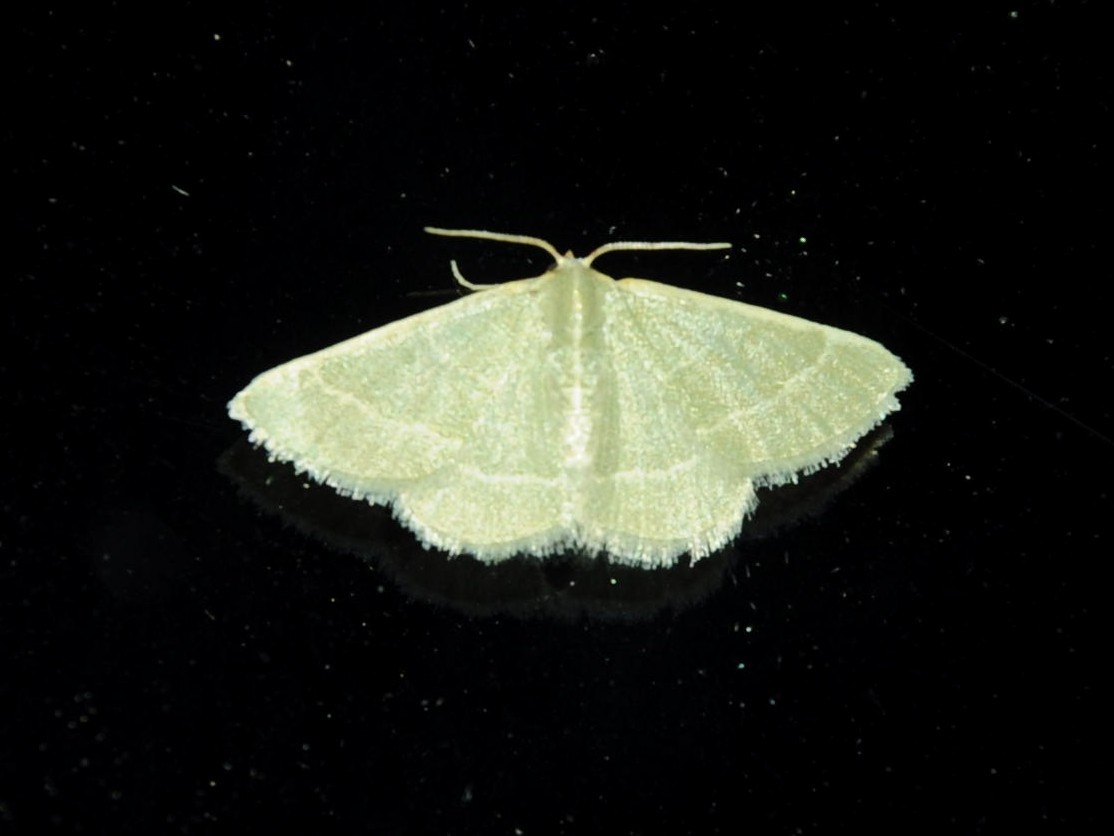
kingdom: Animalia
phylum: Arthropoda
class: Insecta
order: Lepidoptera
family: Geometridae
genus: Microloxia
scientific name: Microloxia herbaria
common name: Herb emerald
